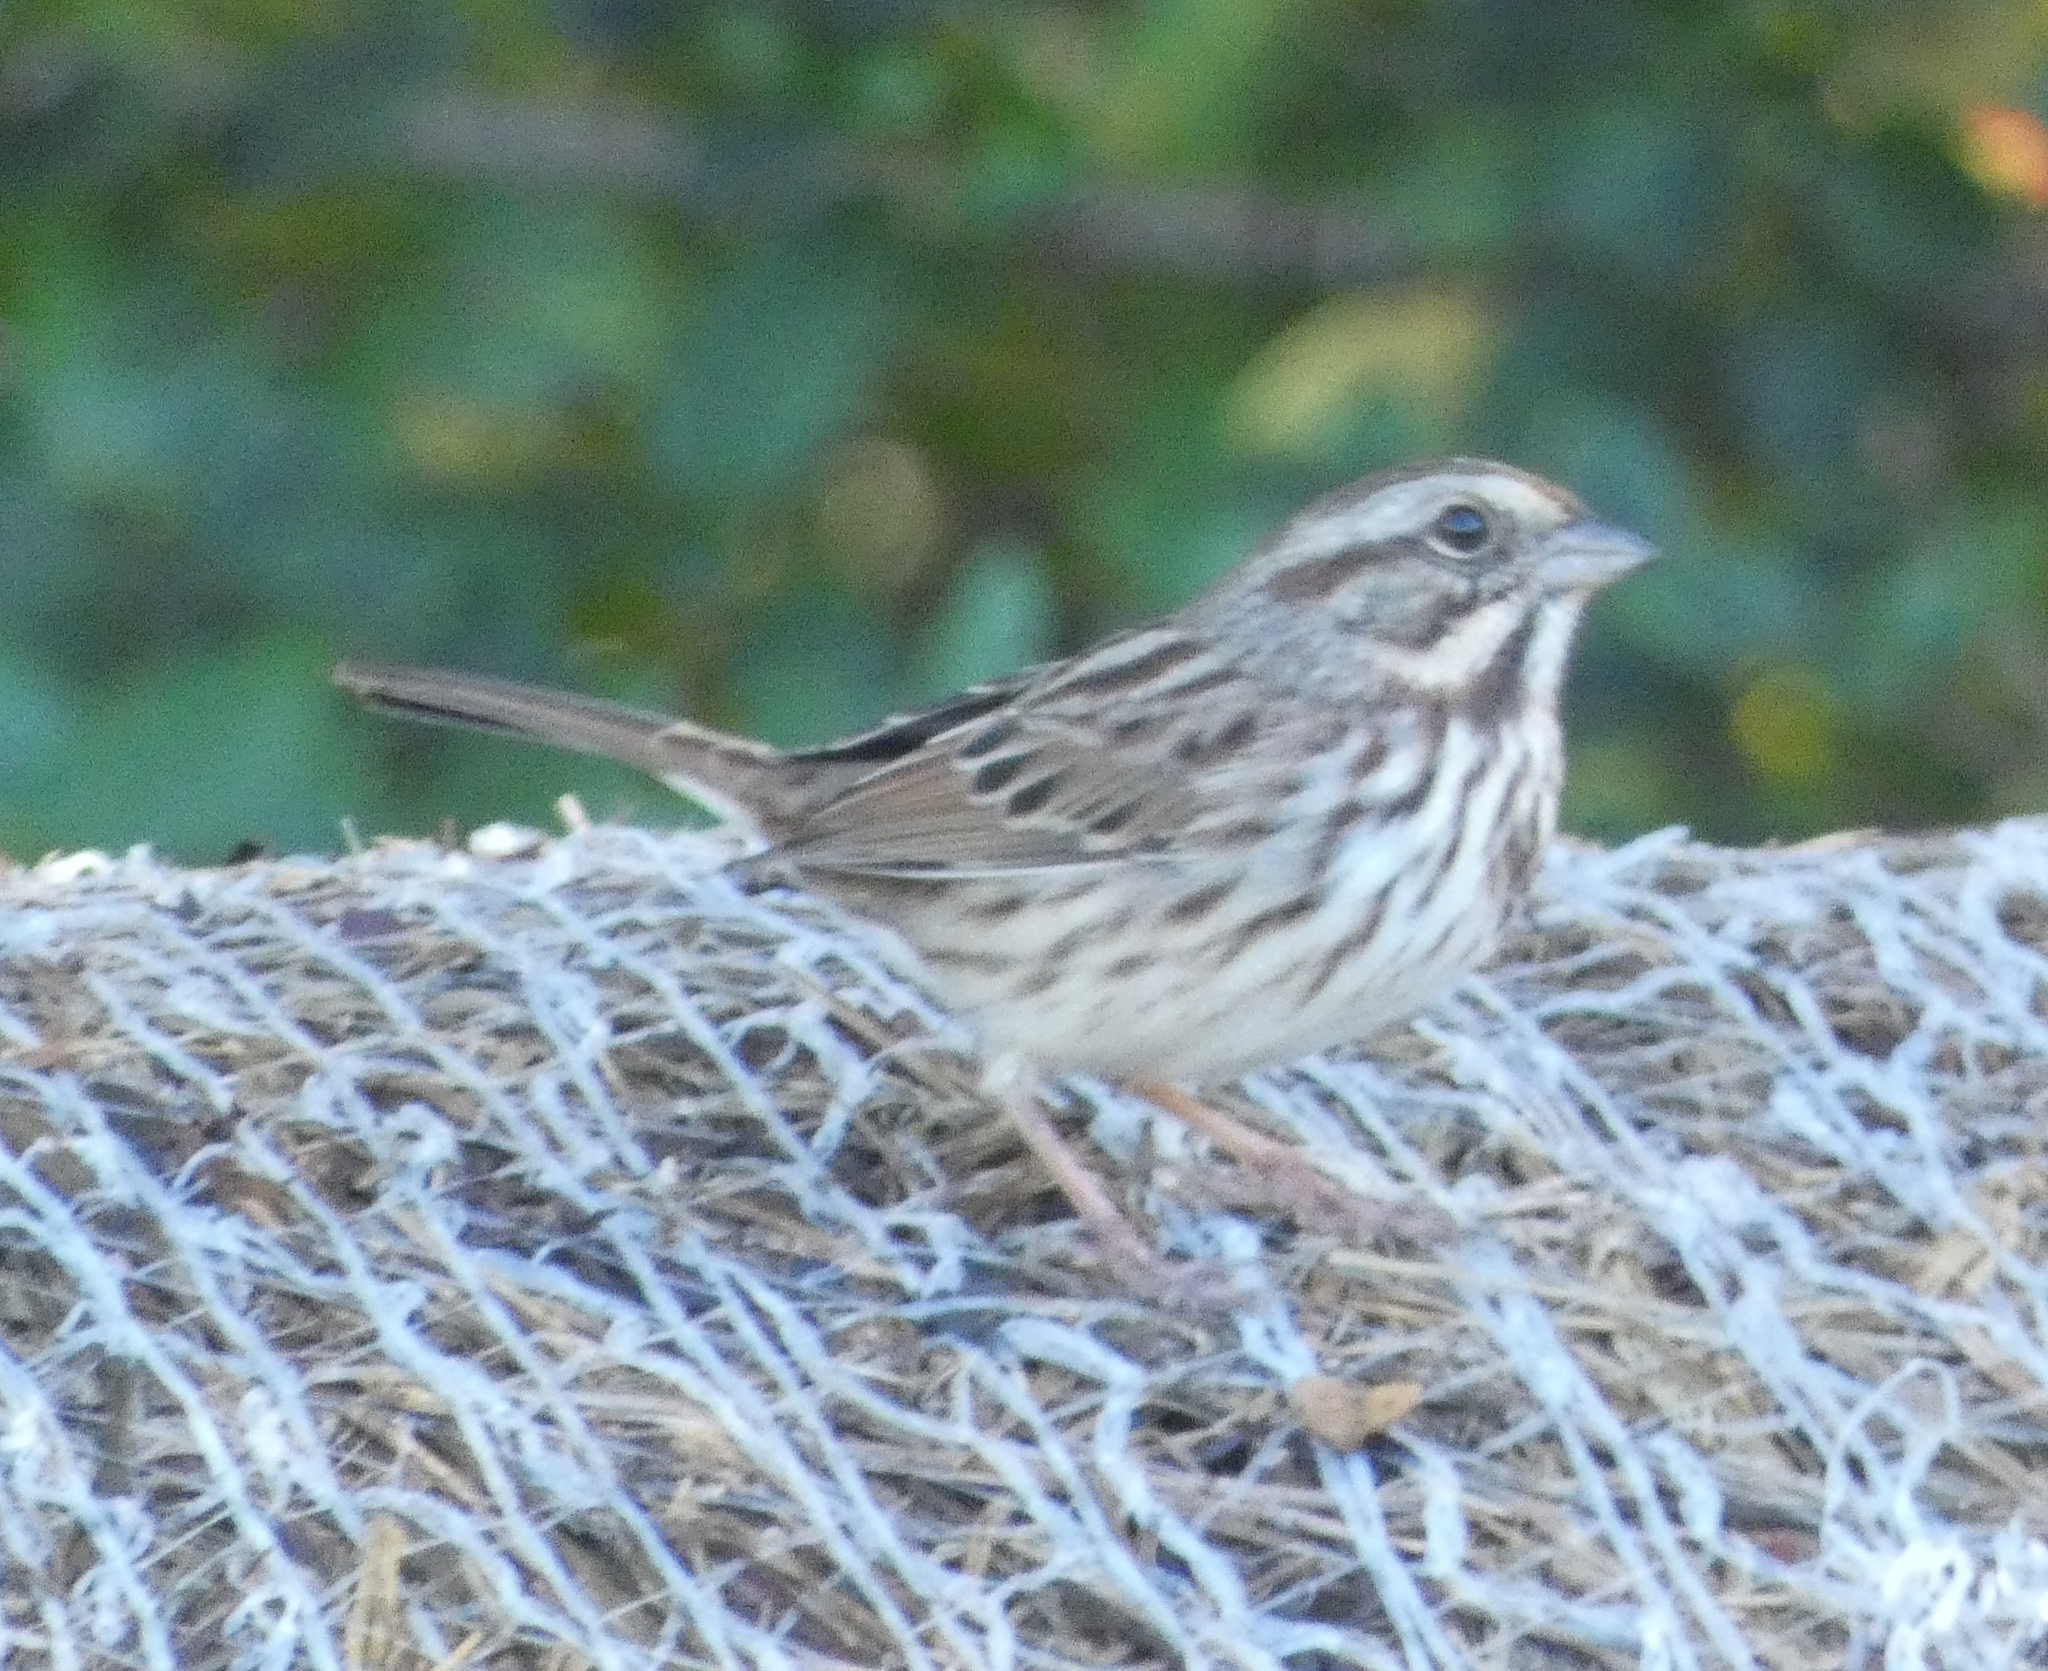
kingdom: Animalia
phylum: Chordata
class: Aves
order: Passeriformes
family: Passerellidae
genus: Melospiza
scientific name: Melospiza melodia
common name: Song sparrow
